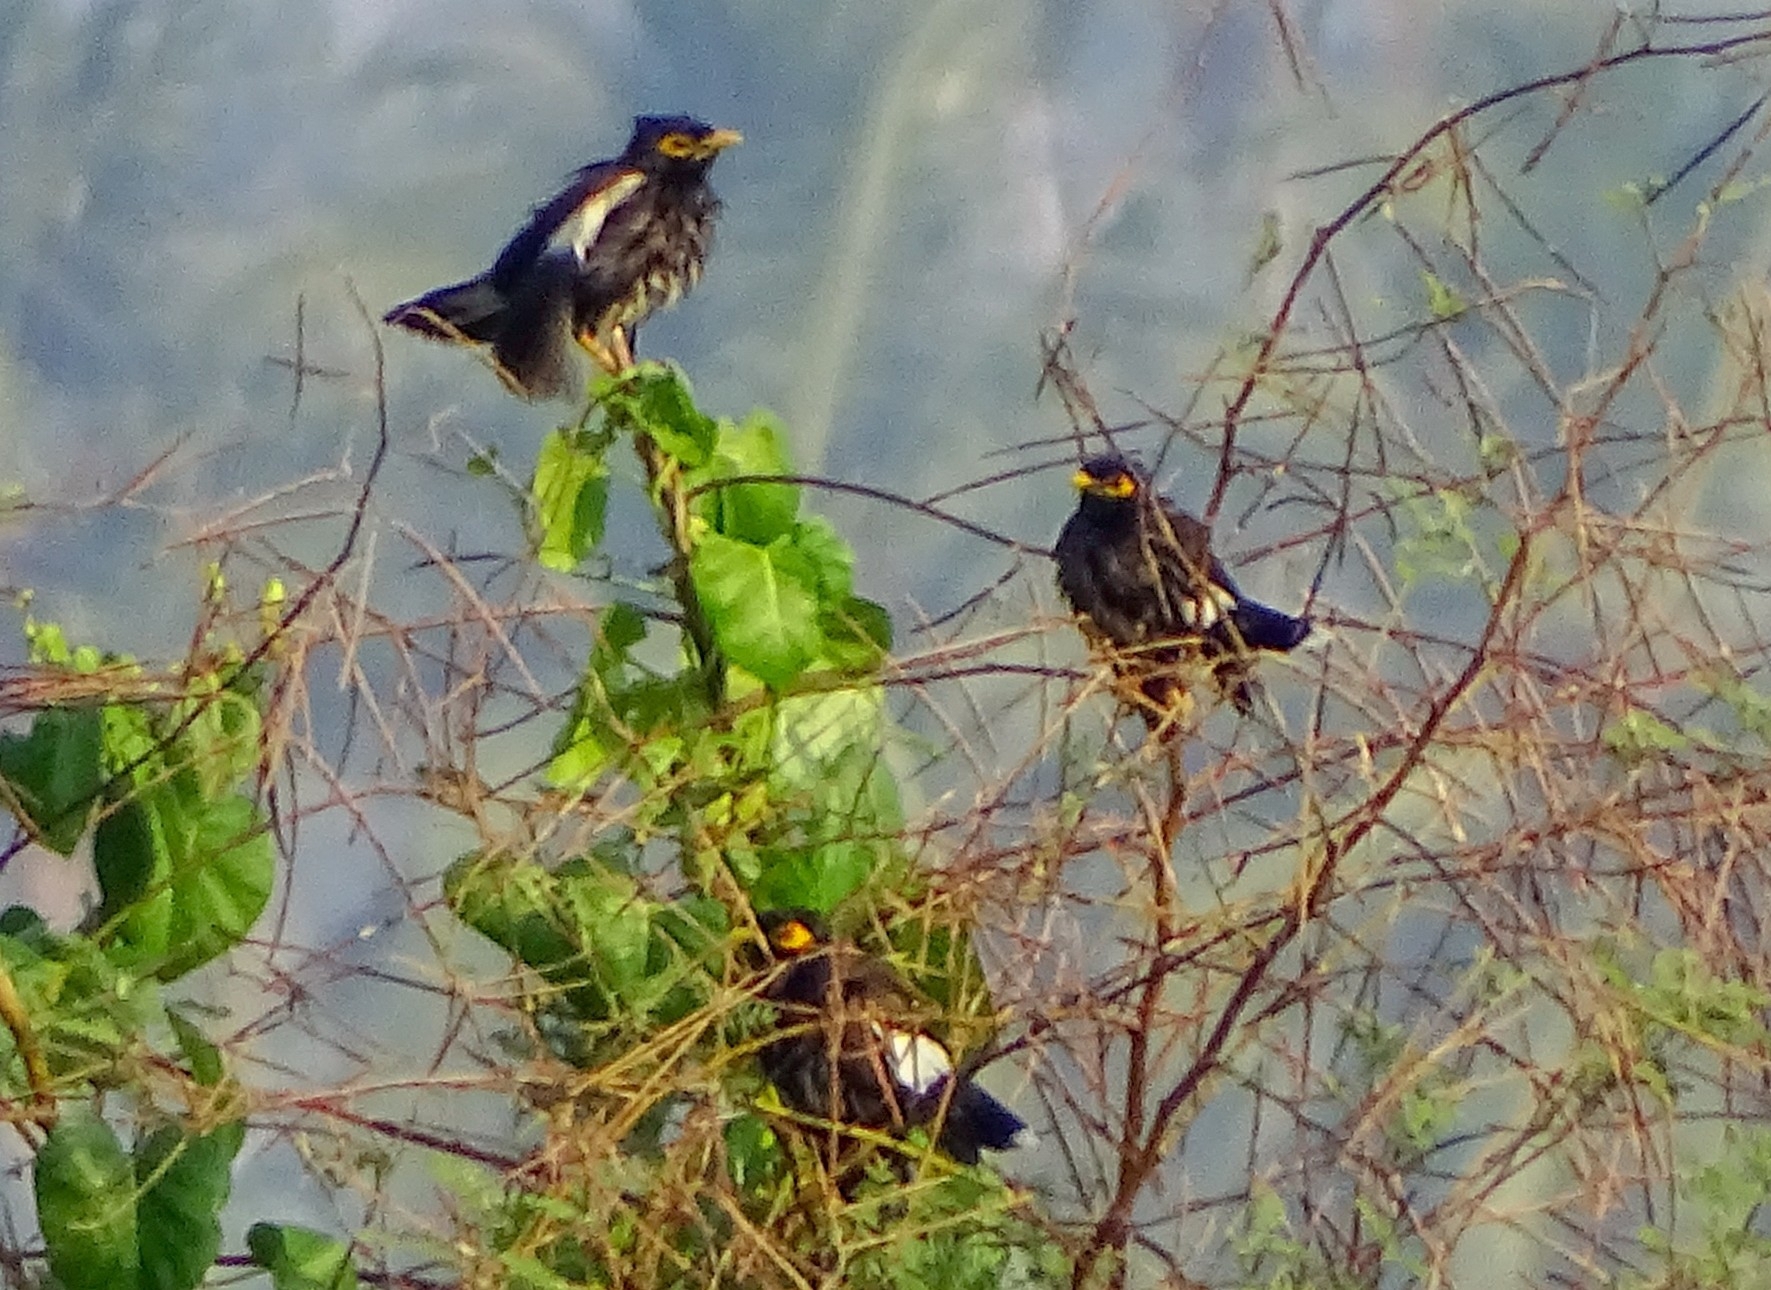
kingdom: Animalia
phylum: Chordata
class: Aves
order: Passeriformes
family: Sturnidae
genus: Acridotheres
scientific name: Acridotheres tristis
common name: Common myna
